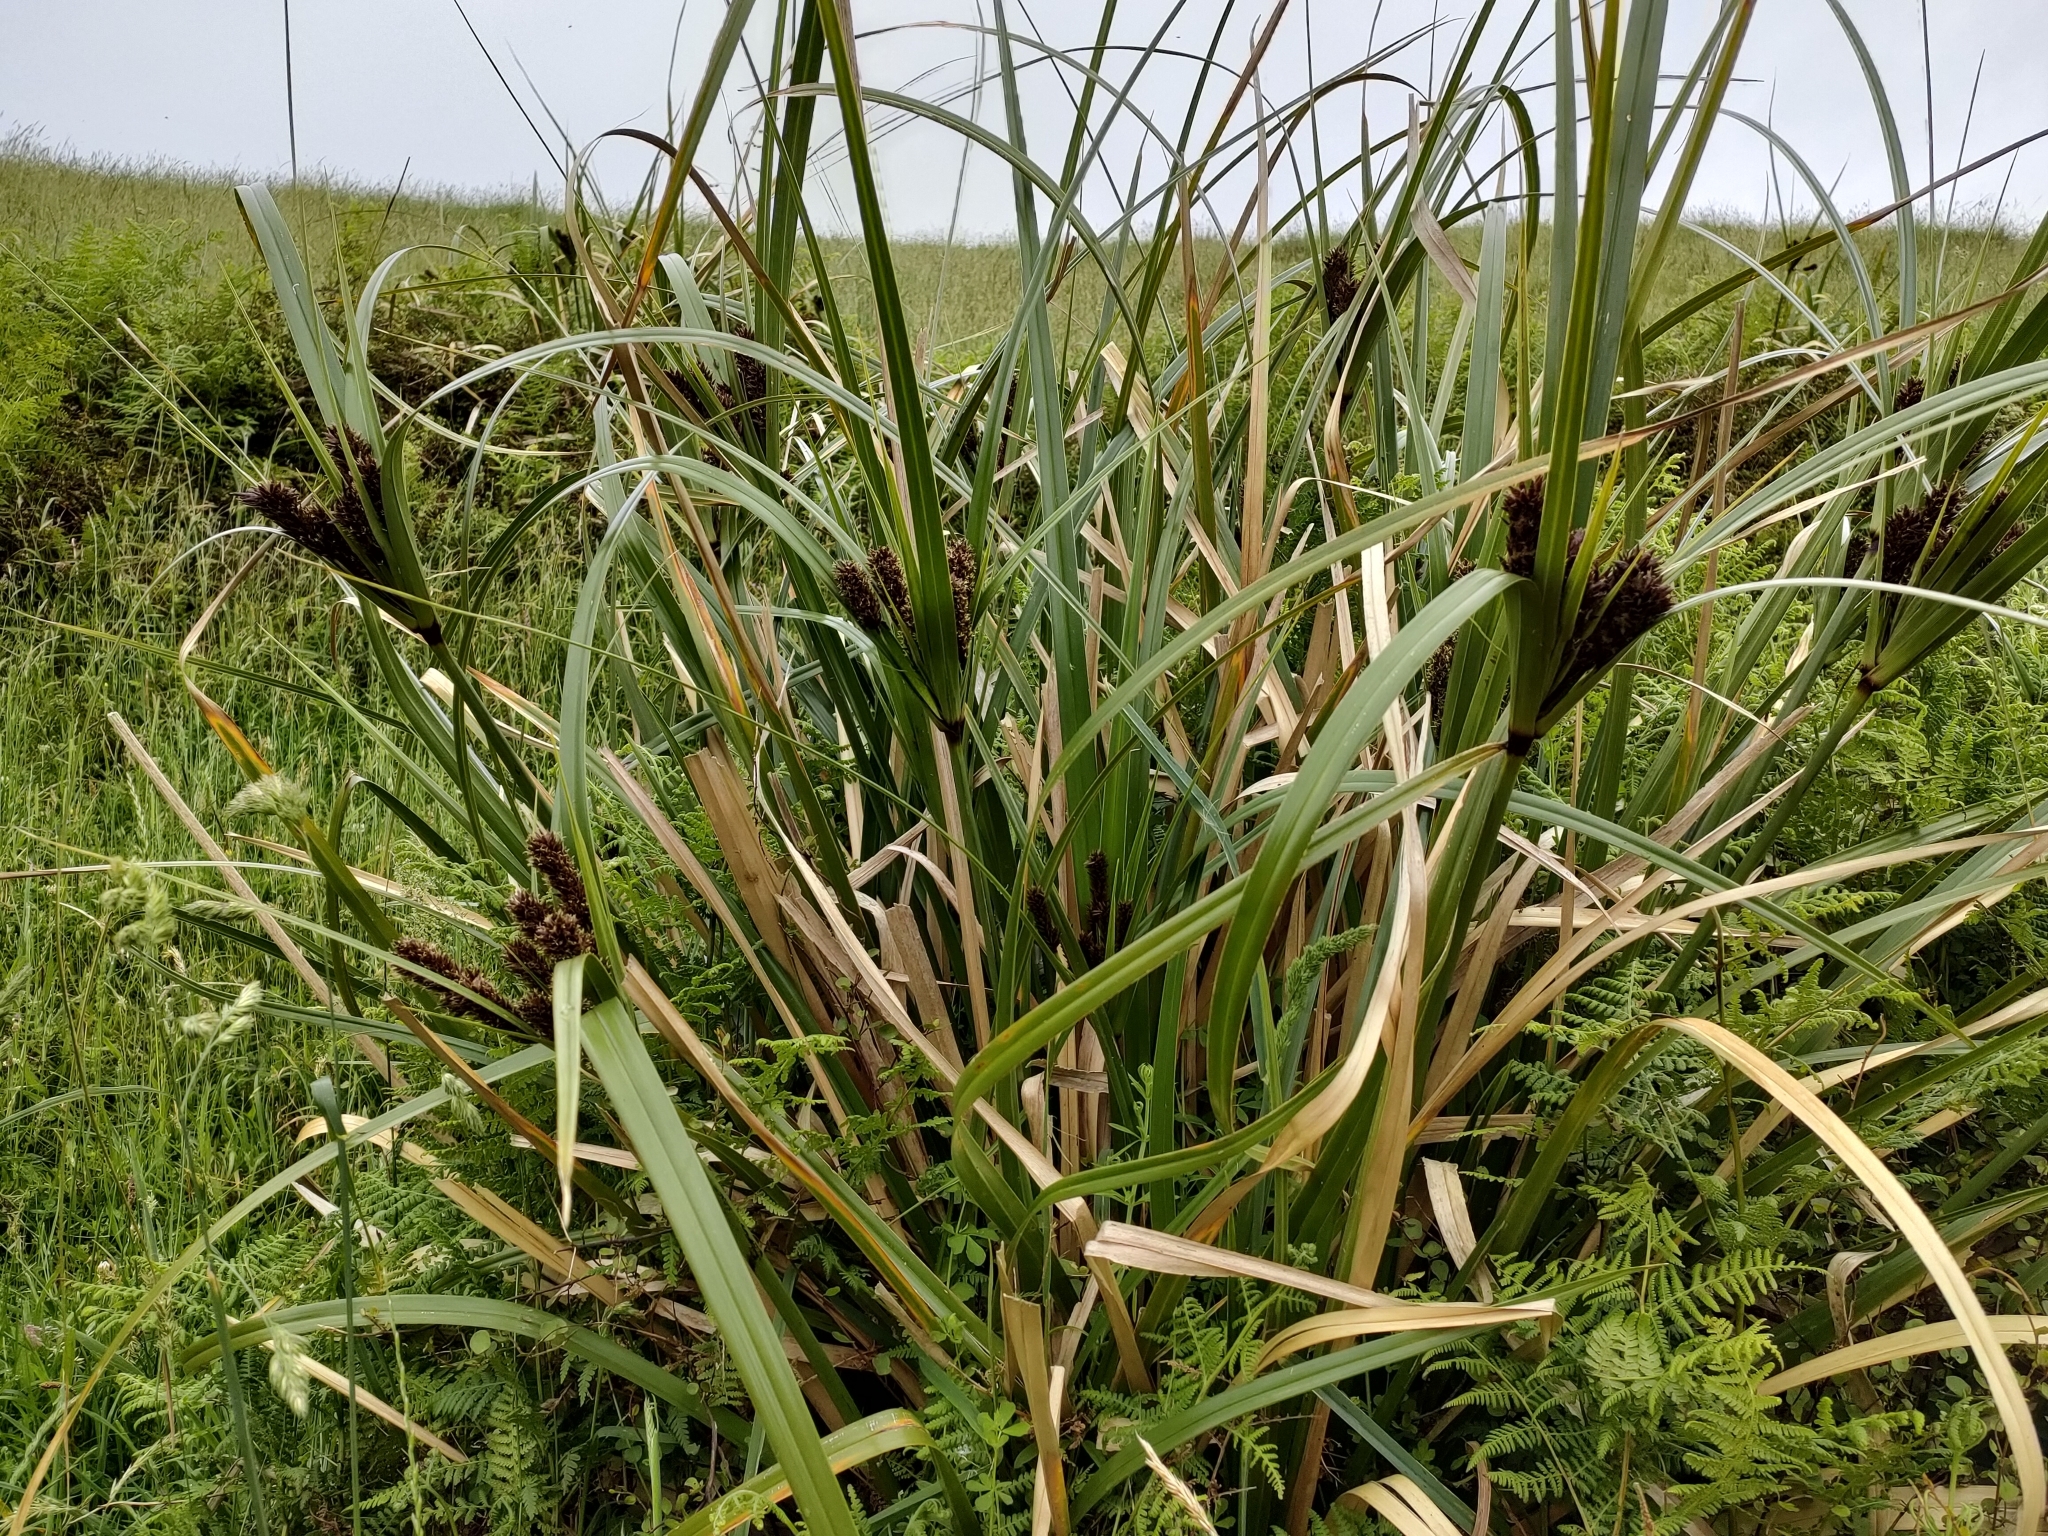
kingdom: Plantae
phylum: Tracheophyta
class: Liliopsida
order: Poales
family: Cyperaceae
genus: Cyperus
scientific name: Cyperus ustulatus
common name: Giant umbrella-sedge
